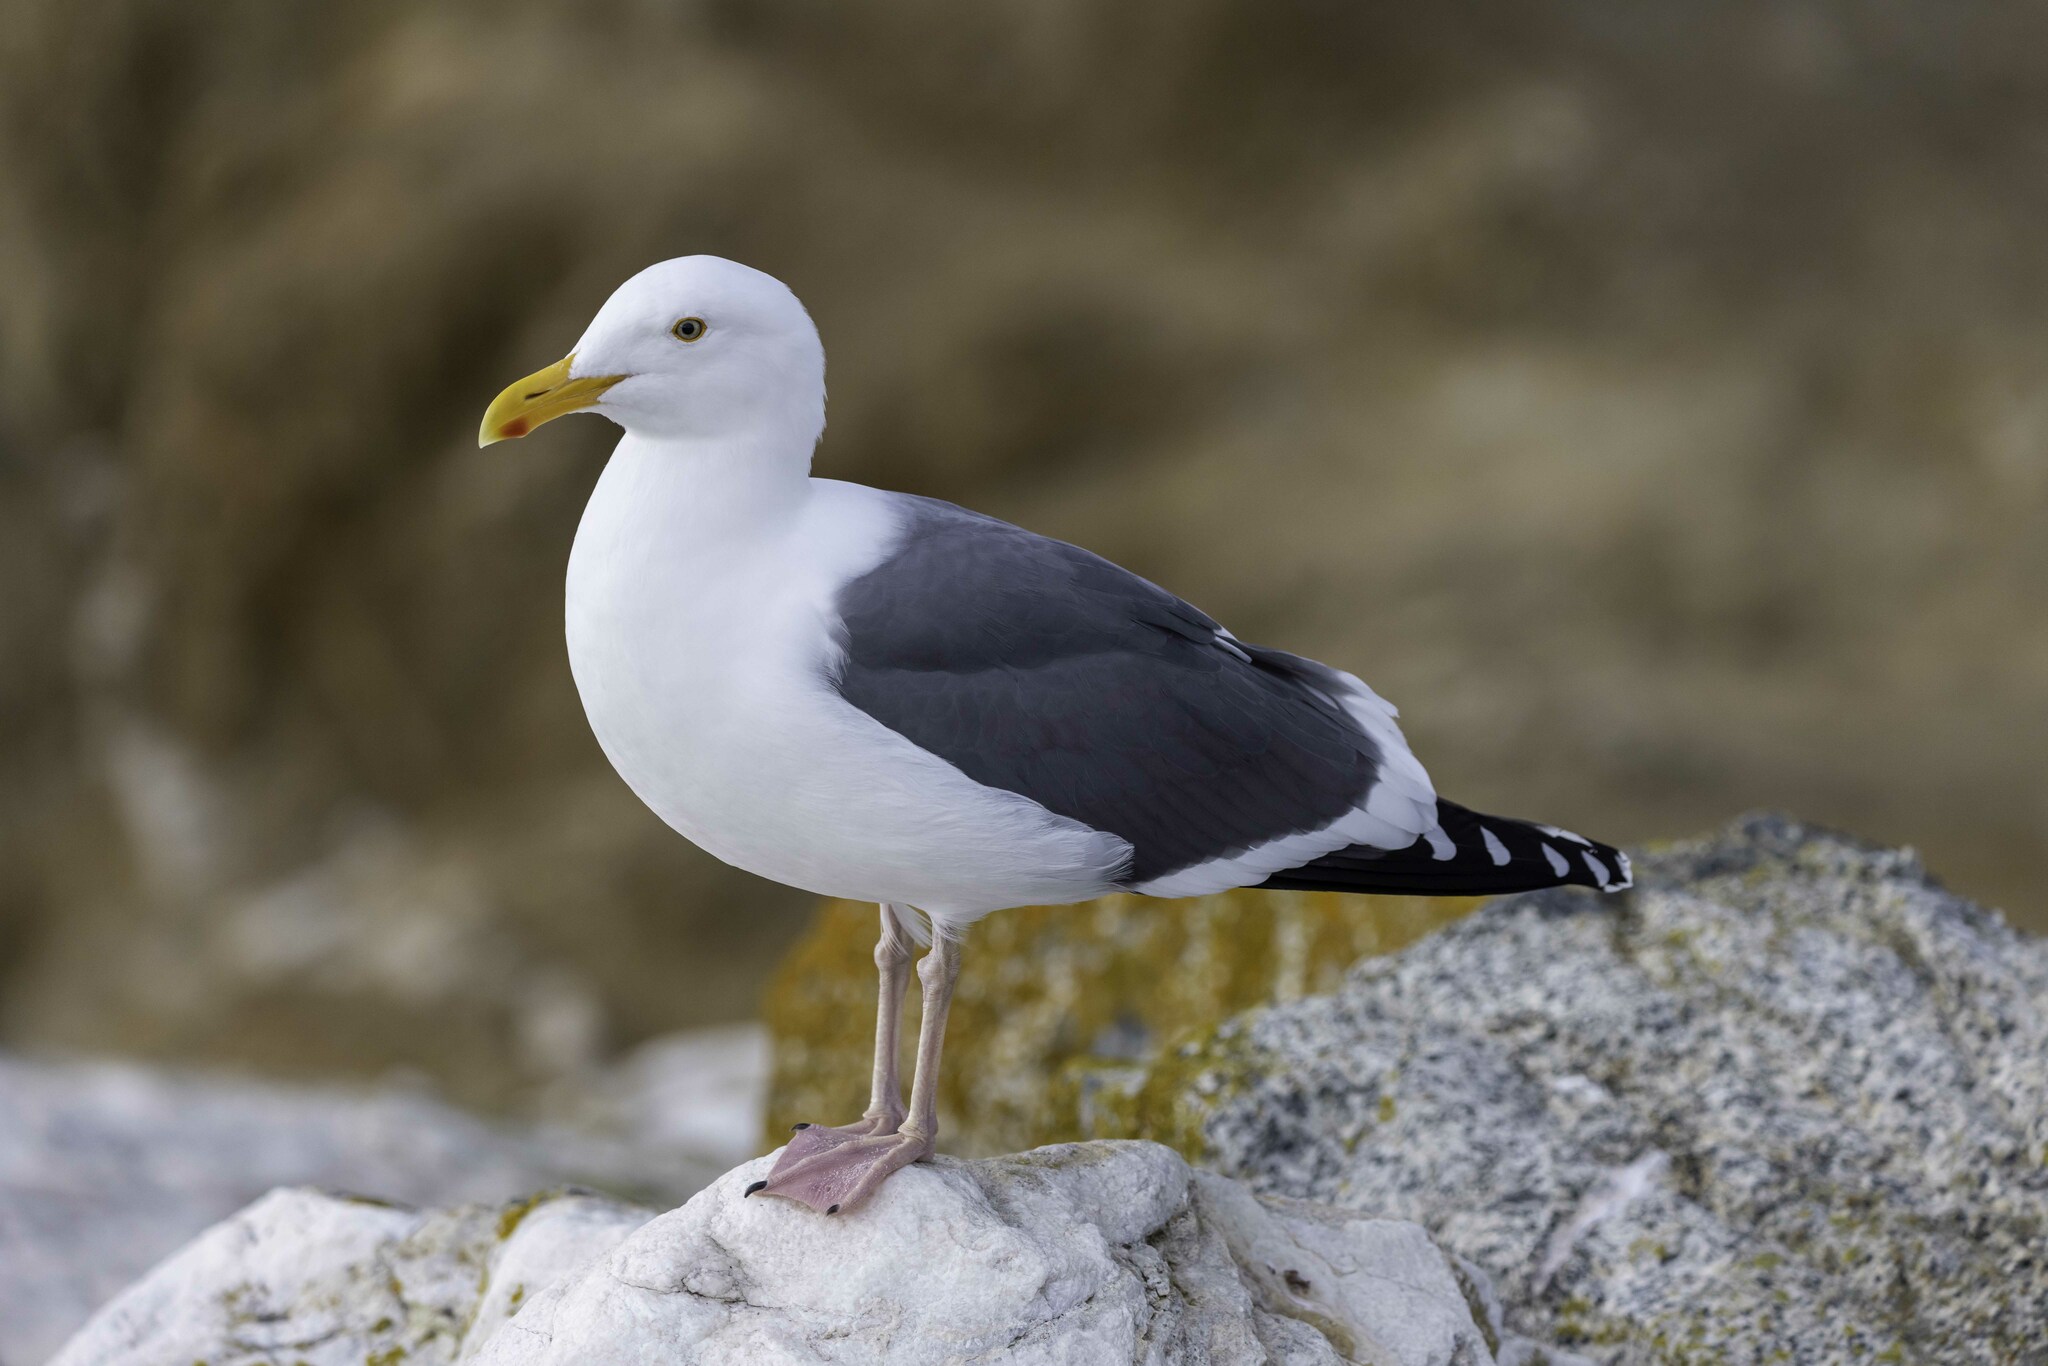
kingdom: Animalia
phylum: Chordata
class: Aves
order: Charadriiformes
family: Laridae
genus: Larus
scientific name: Larus occidentalis
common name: Western gull
